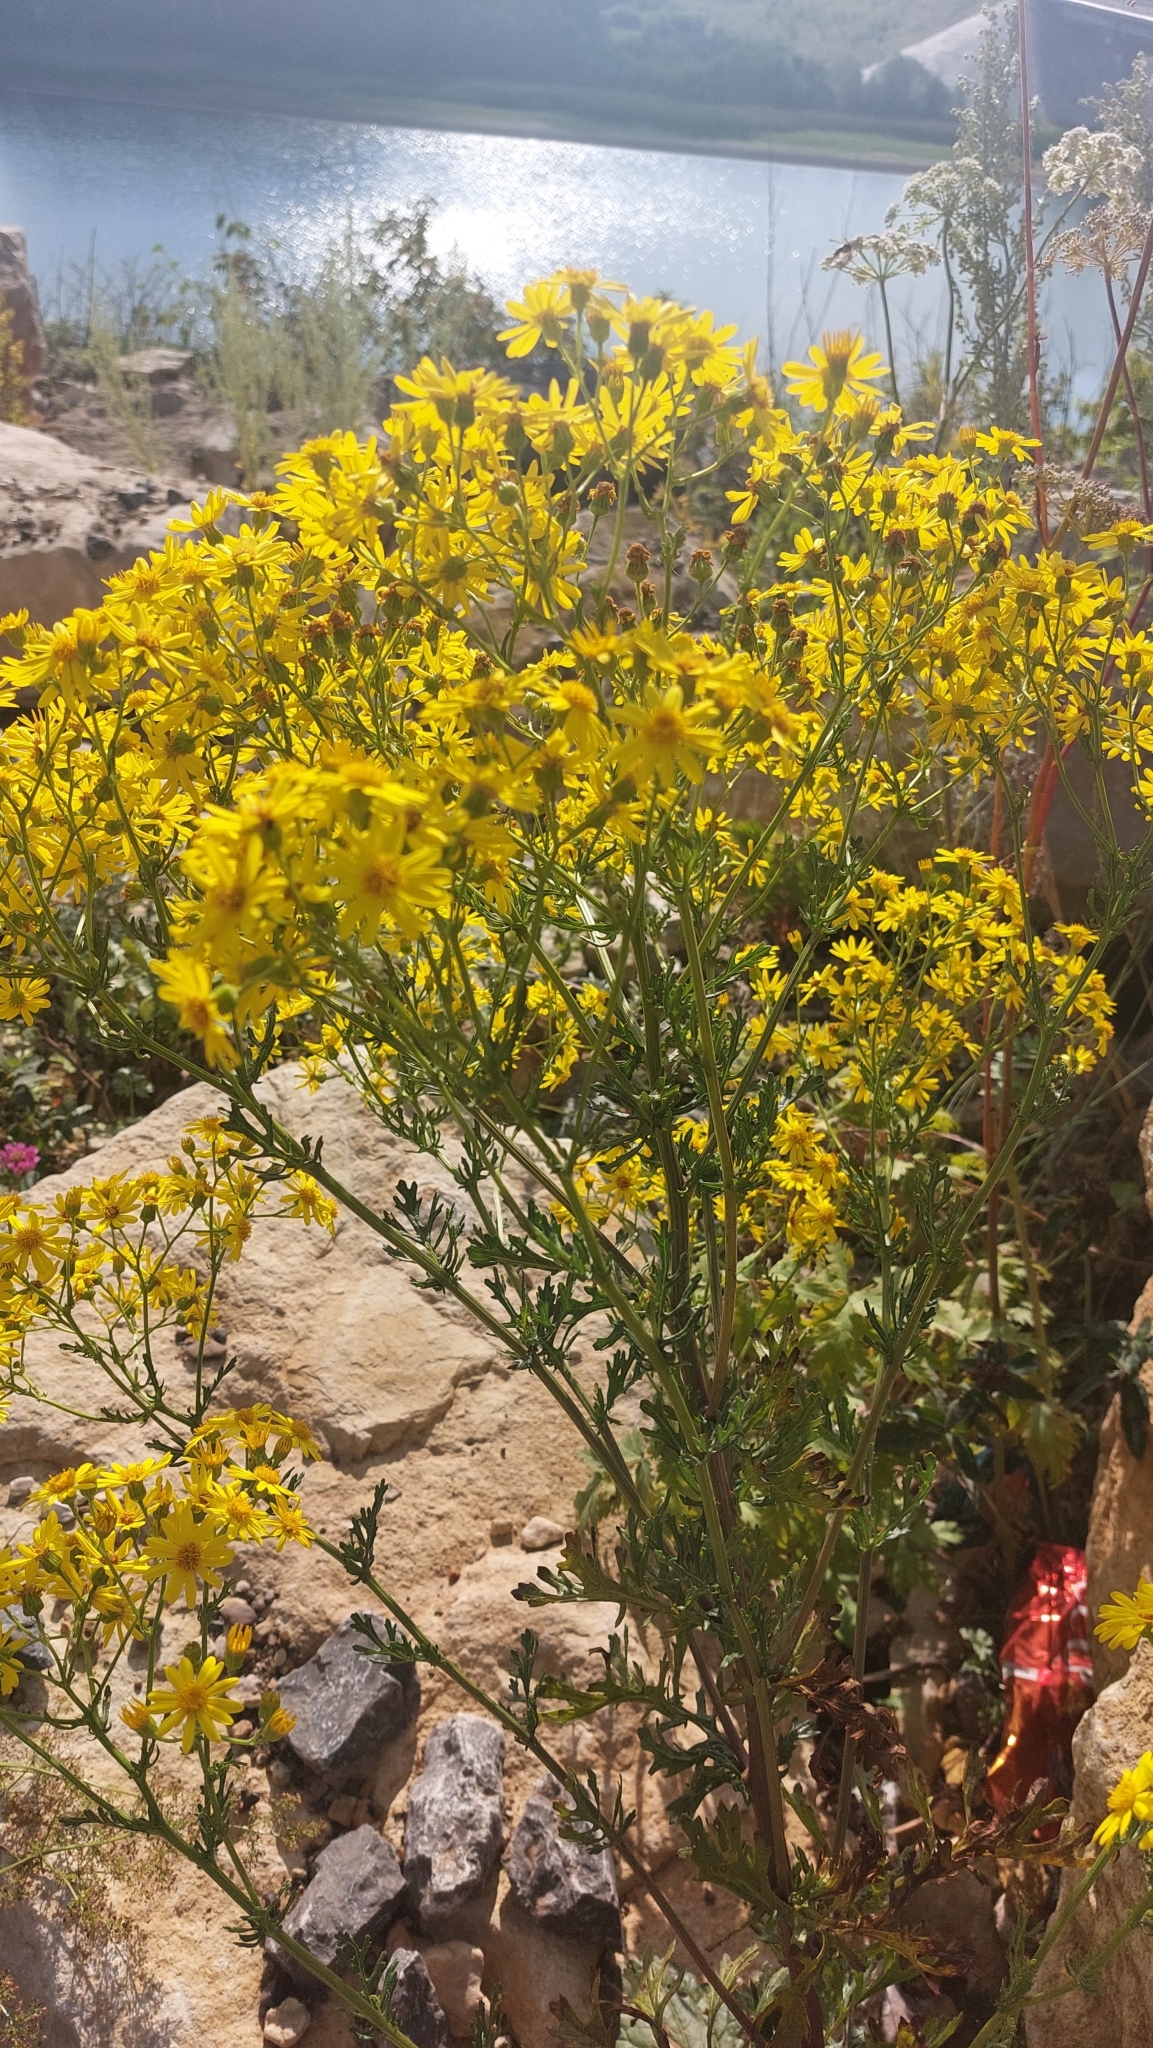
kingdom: Plantae
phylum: Tracheophyta
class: Magnoliopsida
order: Asterales
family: Asteraceae
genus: Jacobaea
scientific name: Jacobaea vulgaris
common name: Stinking willie
